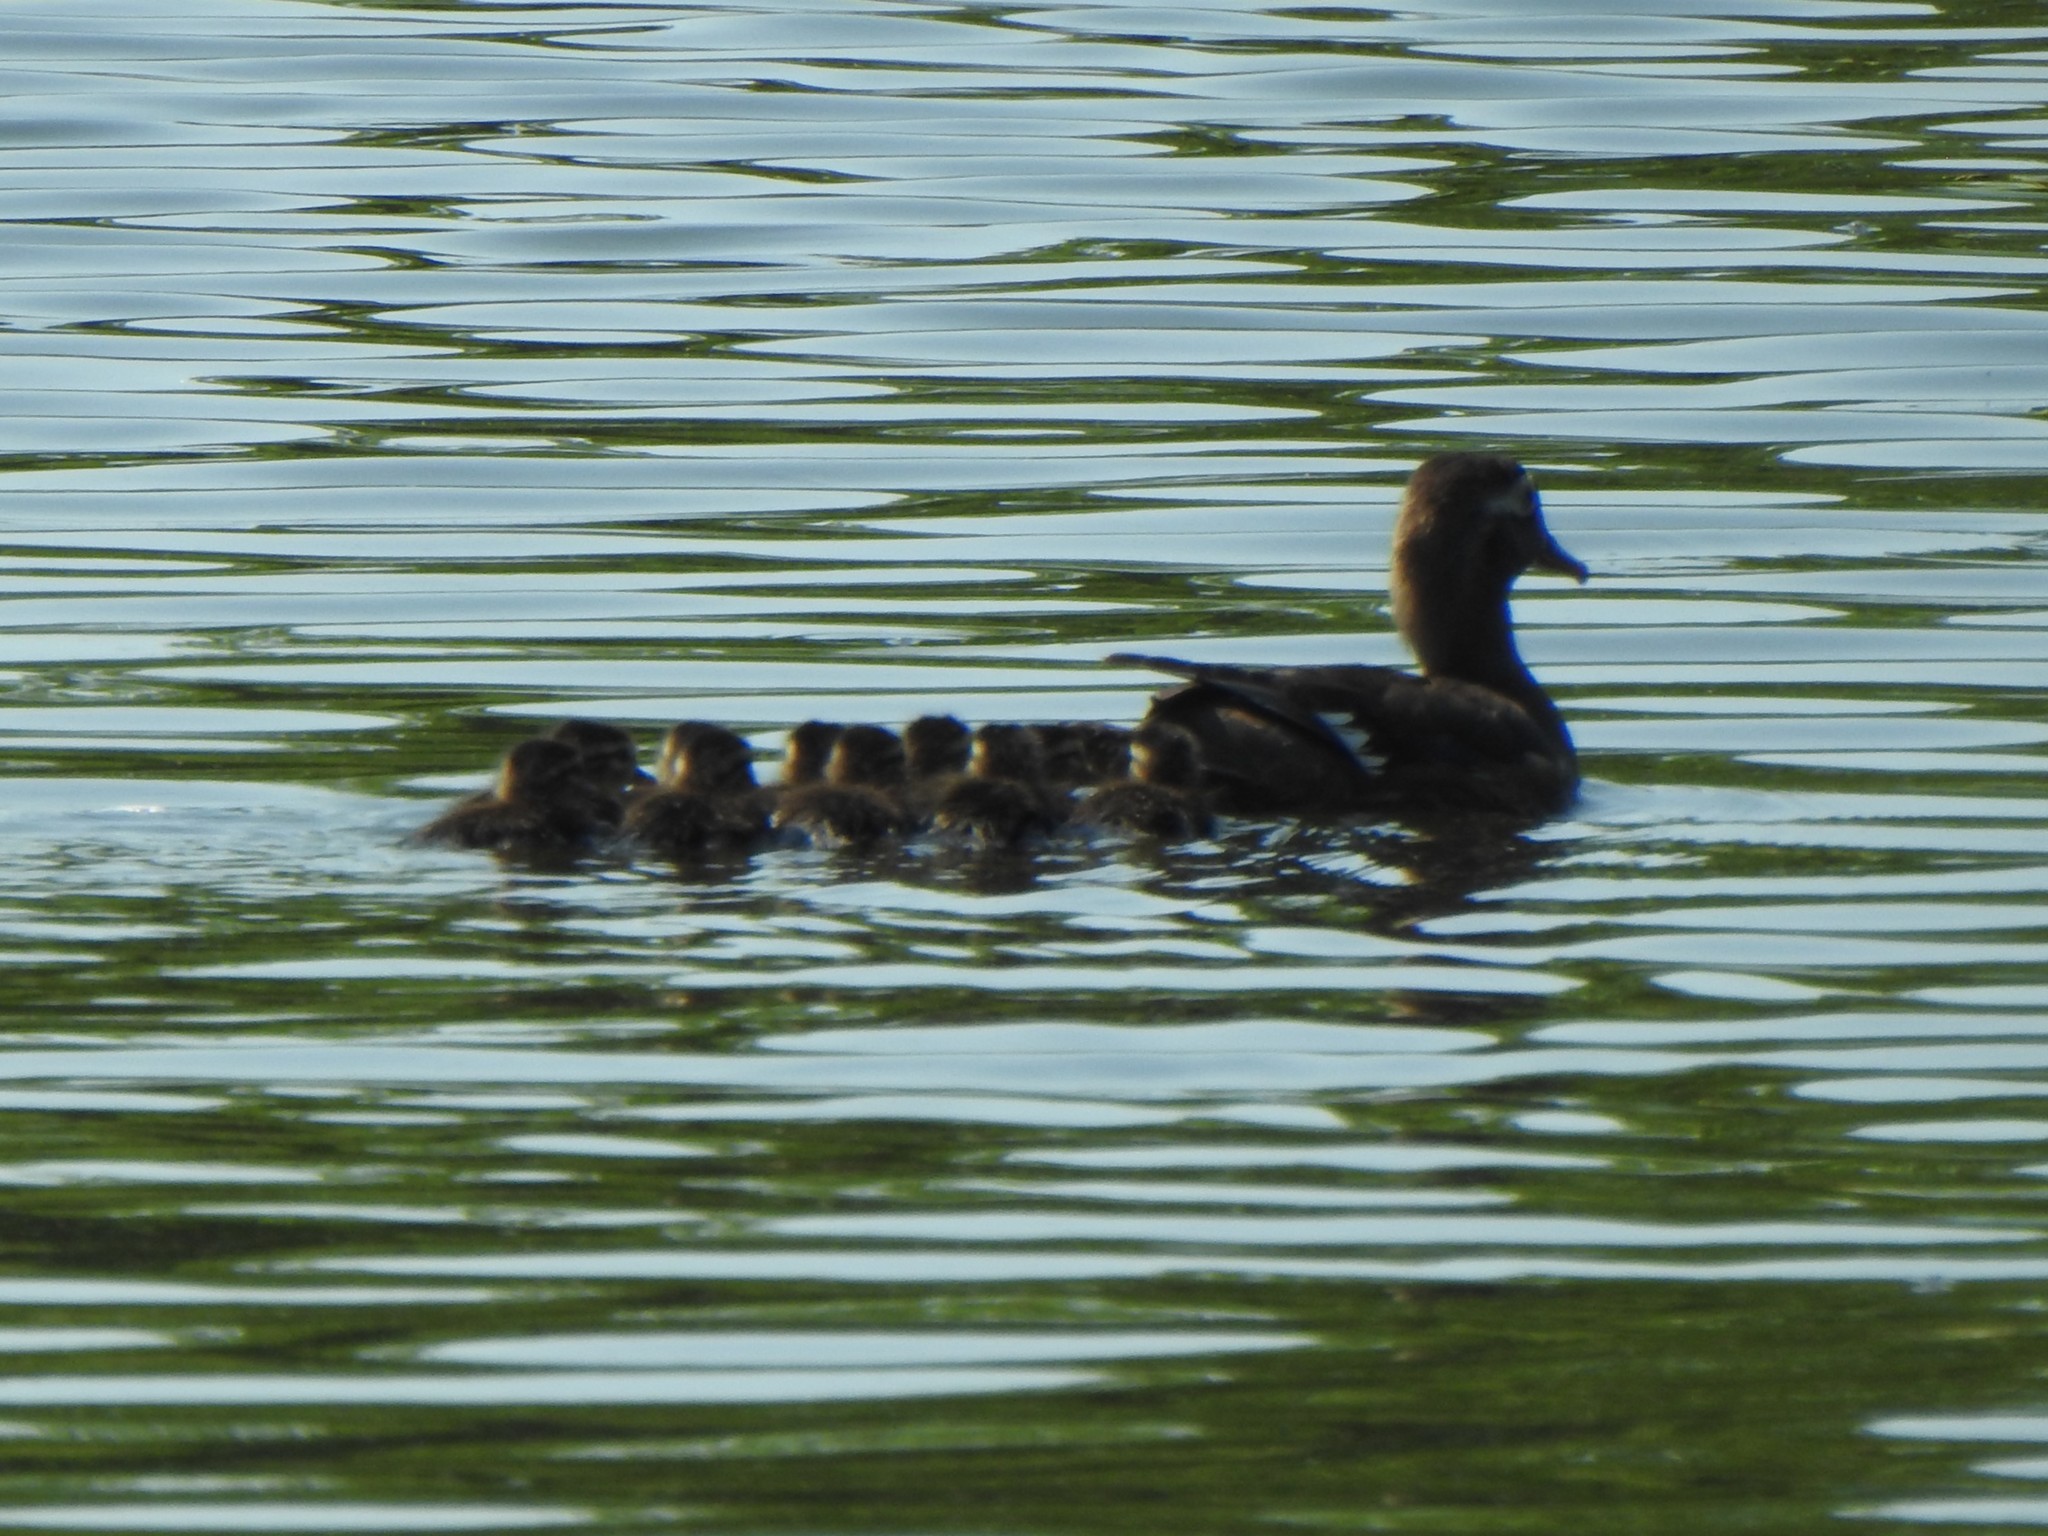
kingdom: Animalia
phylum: Chordata
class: Aves
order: Anseriformes
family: Anatidae
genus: Aix
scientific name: Aix sponsa
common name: Wood duck
